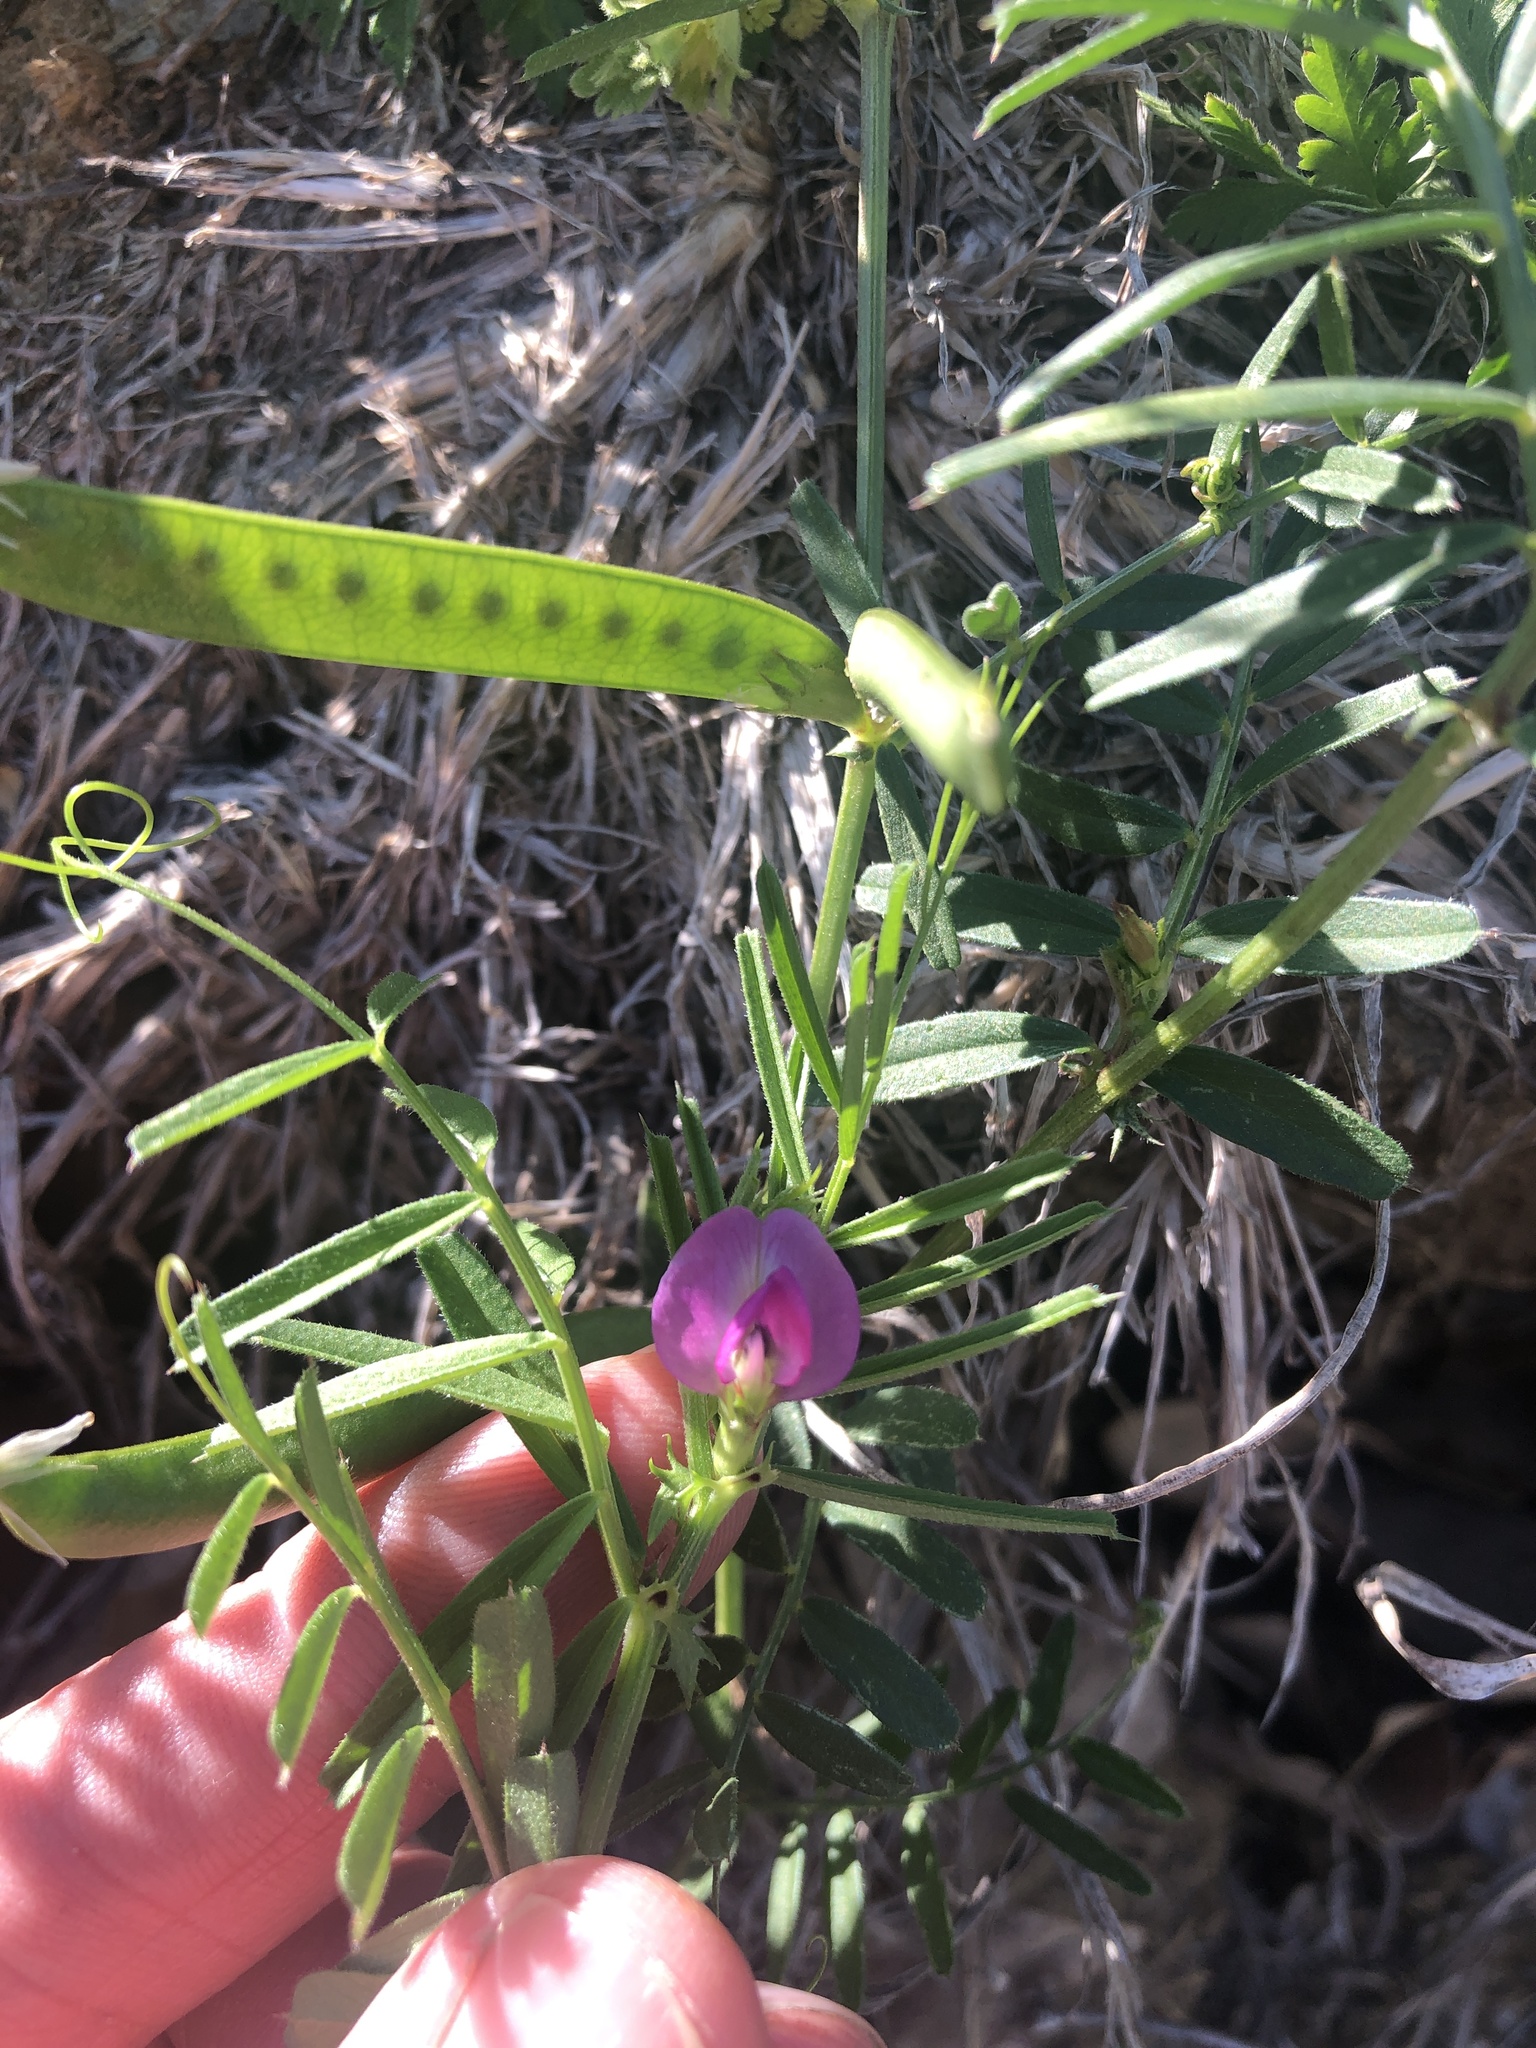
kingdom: Plantae
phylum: Tracheophyta
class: Magnoliopsida
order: Fabales
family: Fabaceae
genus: Vicia
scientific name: Vicia sativa
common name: Garden vetch
